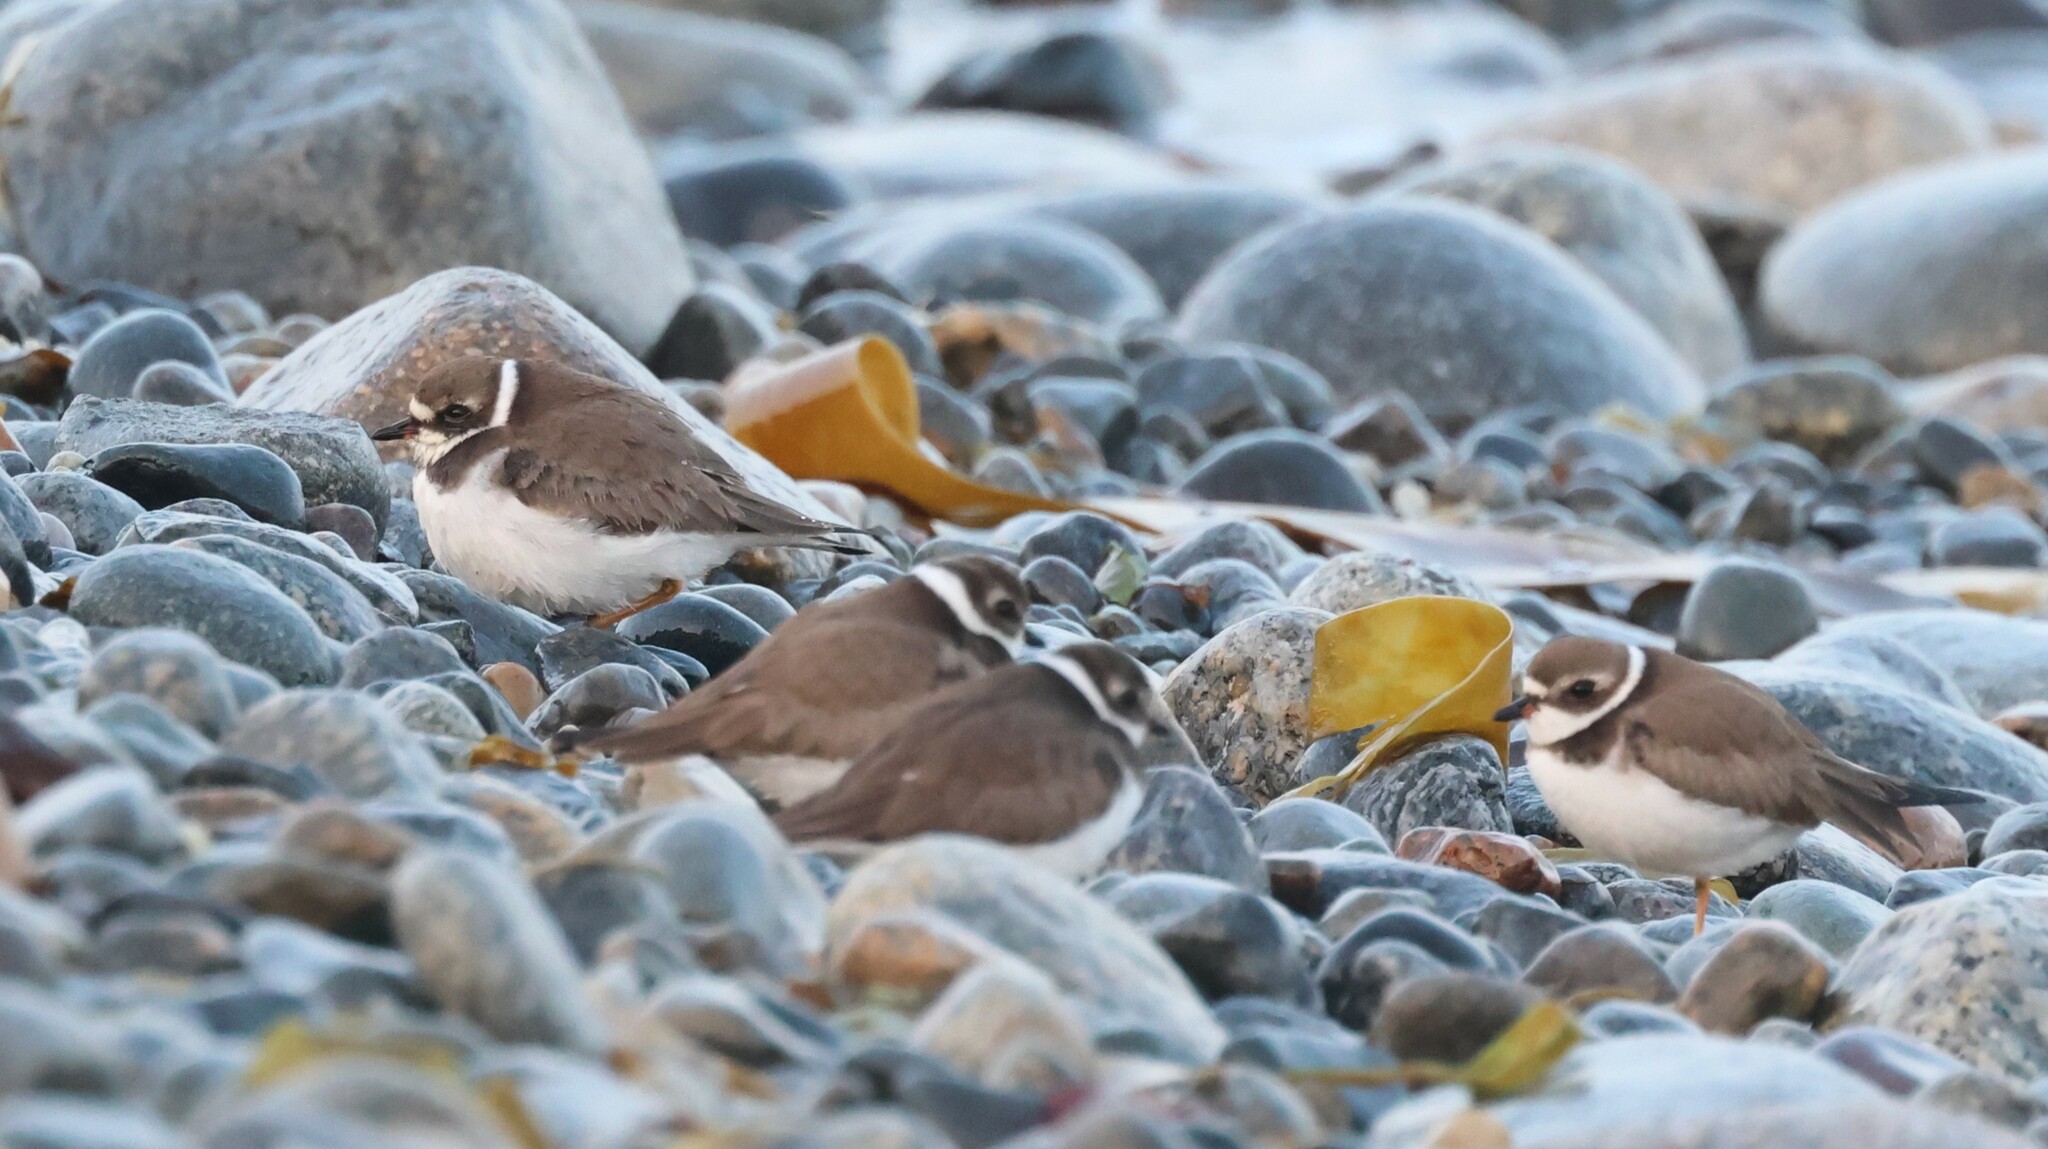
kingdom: Animalia
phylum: Chordata
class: Aves
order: Charadriiformes
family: Charadriidae
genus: Charadrius
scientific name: Charadrius semipalmatus
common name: Semipalmated plover
